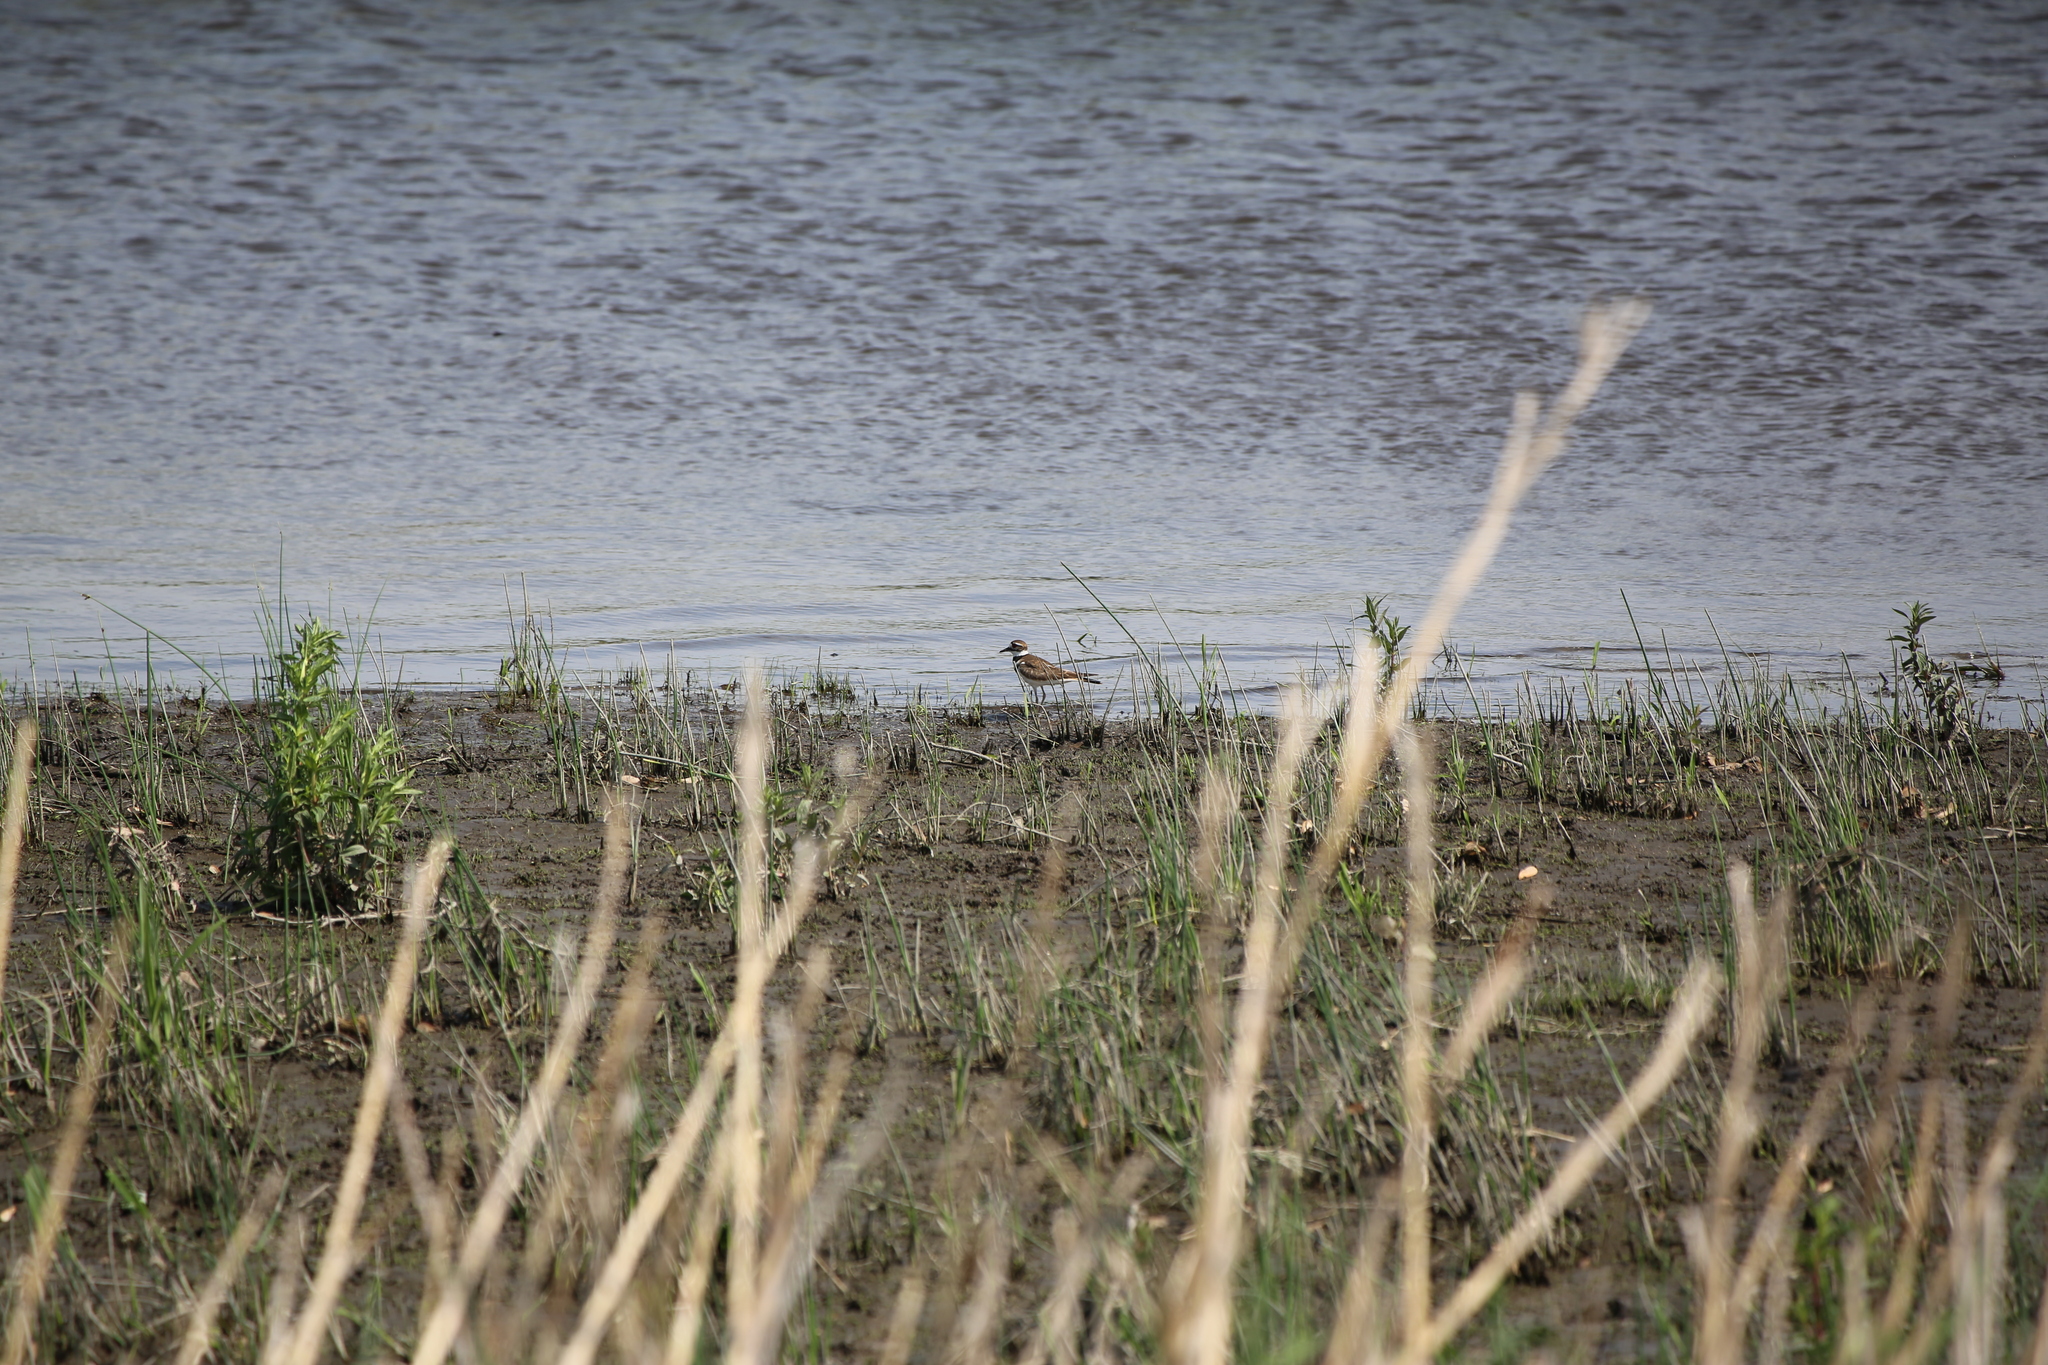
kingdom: Animalia
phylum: Chordata
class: Aves
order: Charadriiformes
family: Charadriidae
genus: Charadrius
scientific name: Charadrius vociferus
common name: Killdeer
